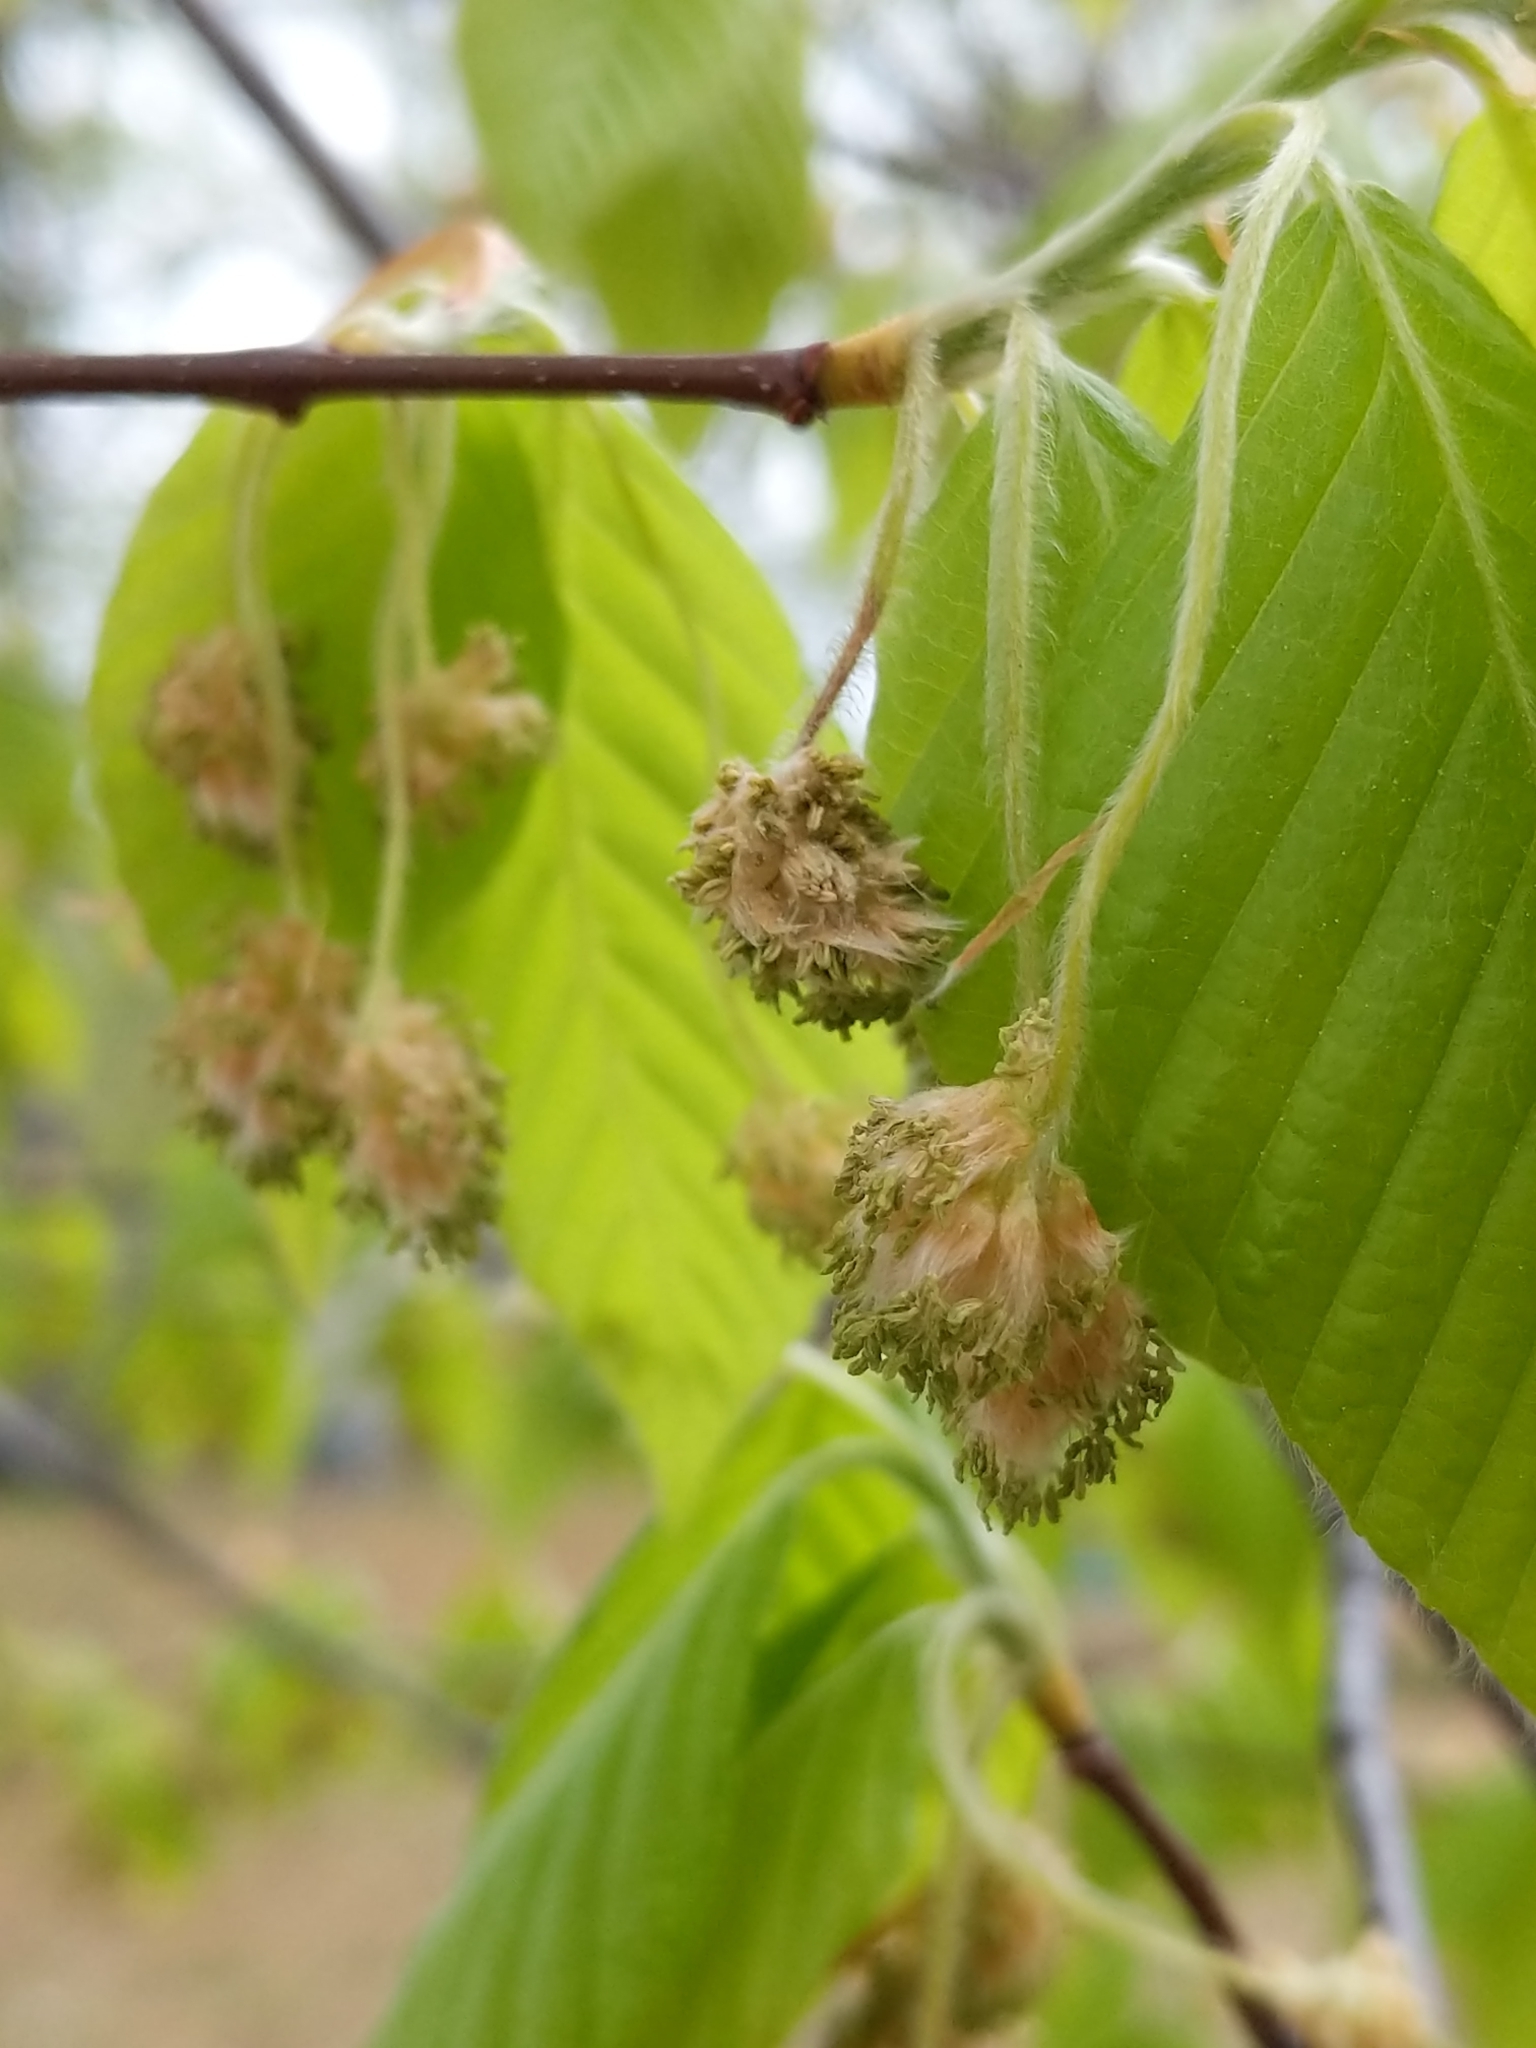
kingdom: Plantae
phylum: Tracheophyta
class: Magnoliopsida
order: Fagales
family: Fagaceae
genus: Fagus
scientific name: Fagus grandifolia
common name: American beech
